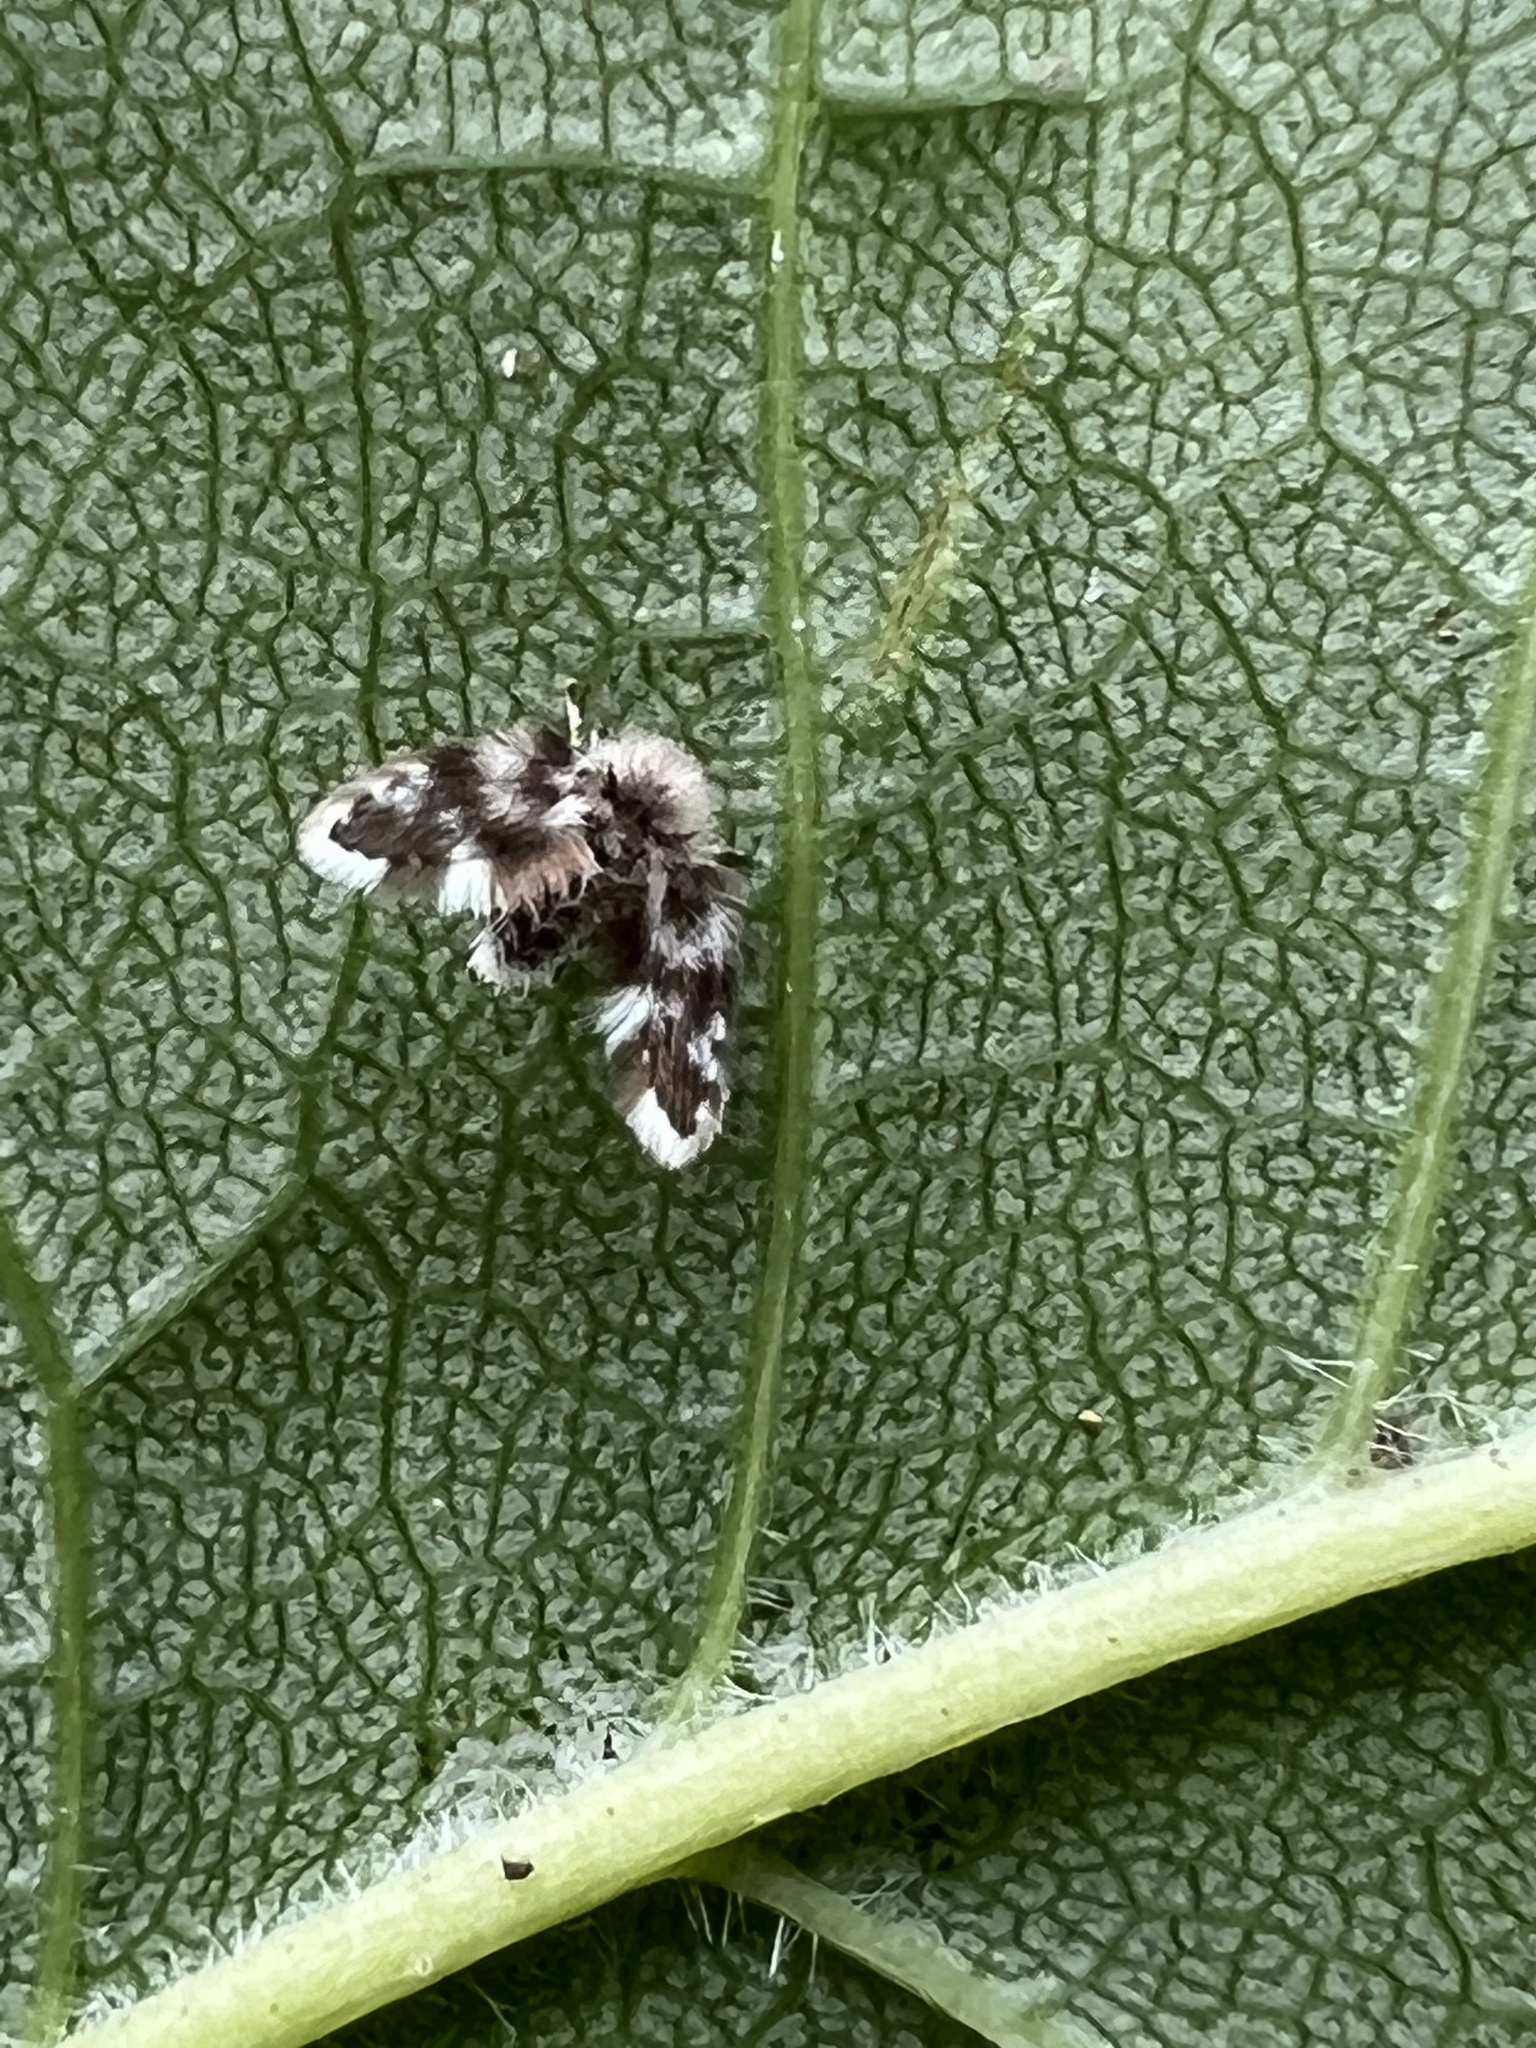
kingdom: Animalia
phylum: Arthropoda
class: Insecta
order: Diptera
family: Psychodidae
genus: Lepiseodina
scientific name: Lepiseodina
